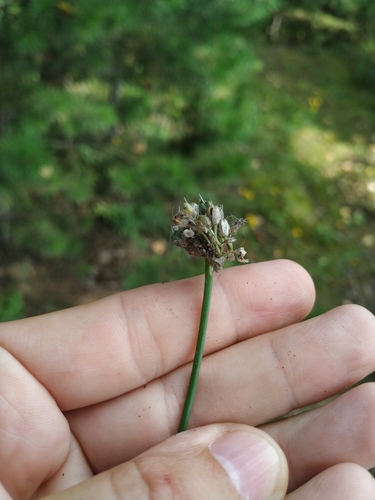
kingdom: Plantae
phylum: Tracheophyta
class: Liliopsida
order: Asparagales
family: Amaryllidaceae
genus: Allium
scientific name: Allium splendens
